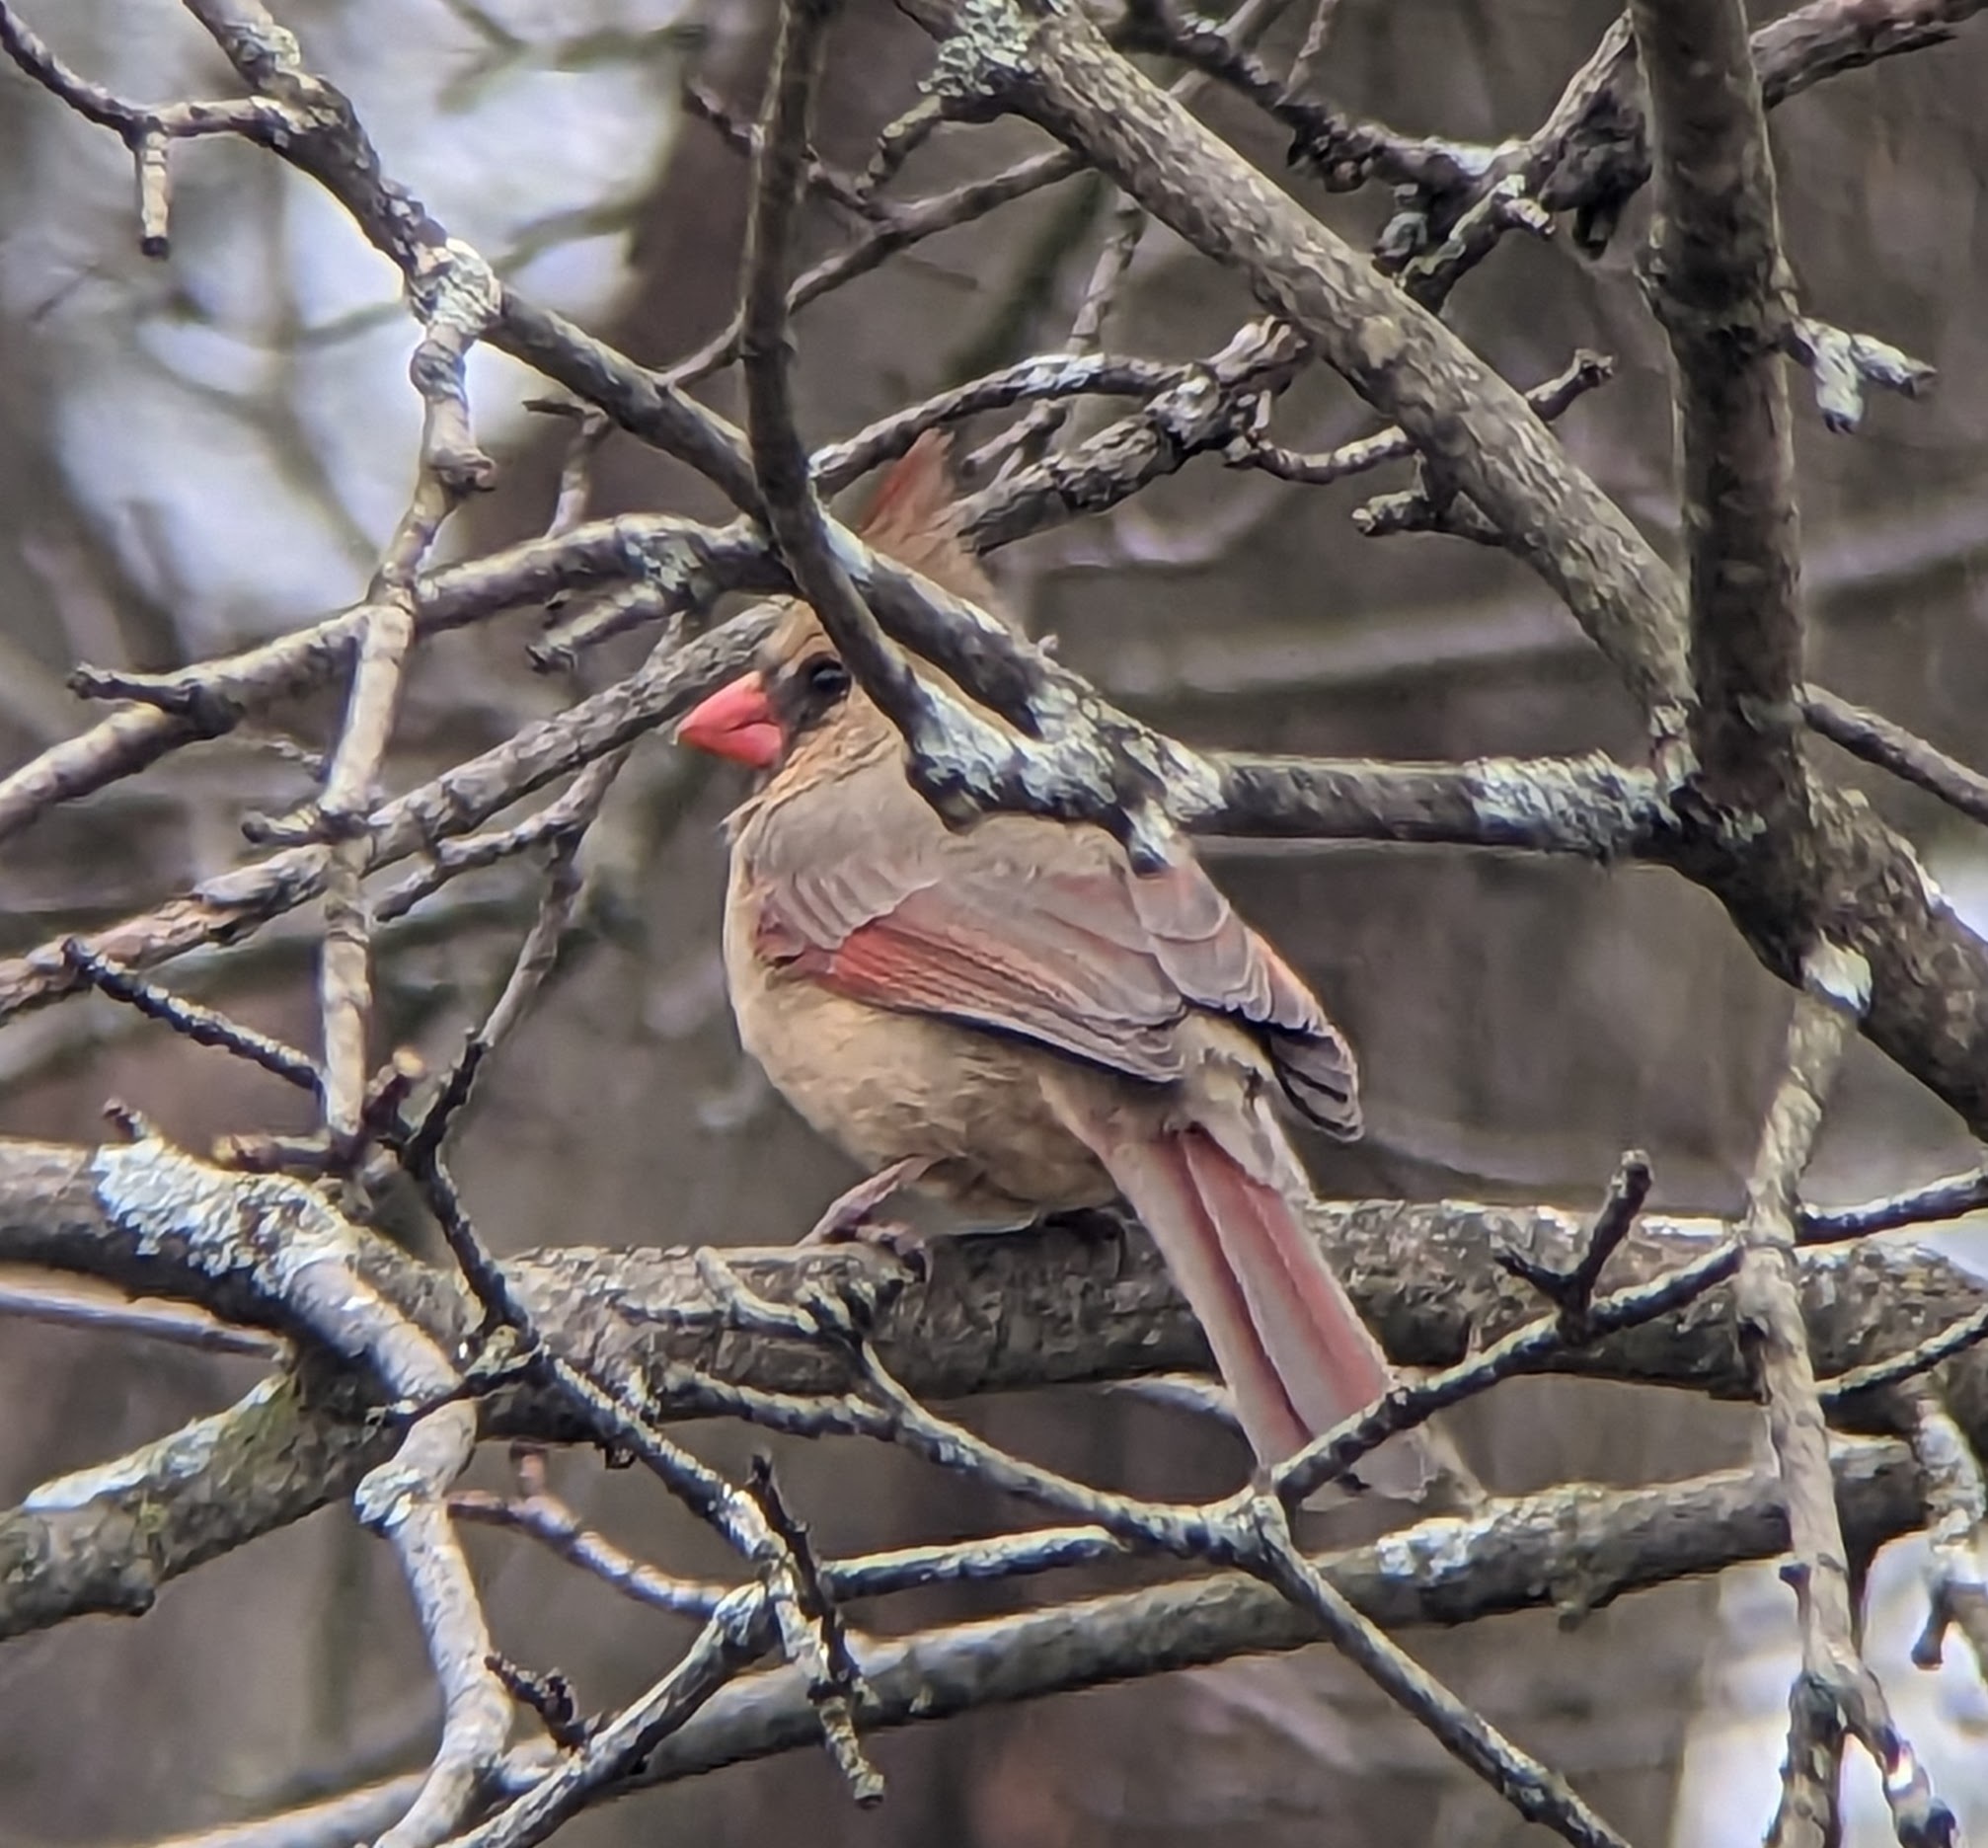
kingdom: Animalia
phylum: Chordata
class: Aves
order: Passeriformes
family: Cardinalidae
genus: Cardinalis
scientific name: Cardinalis cardinalis
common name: Northern cardinal
